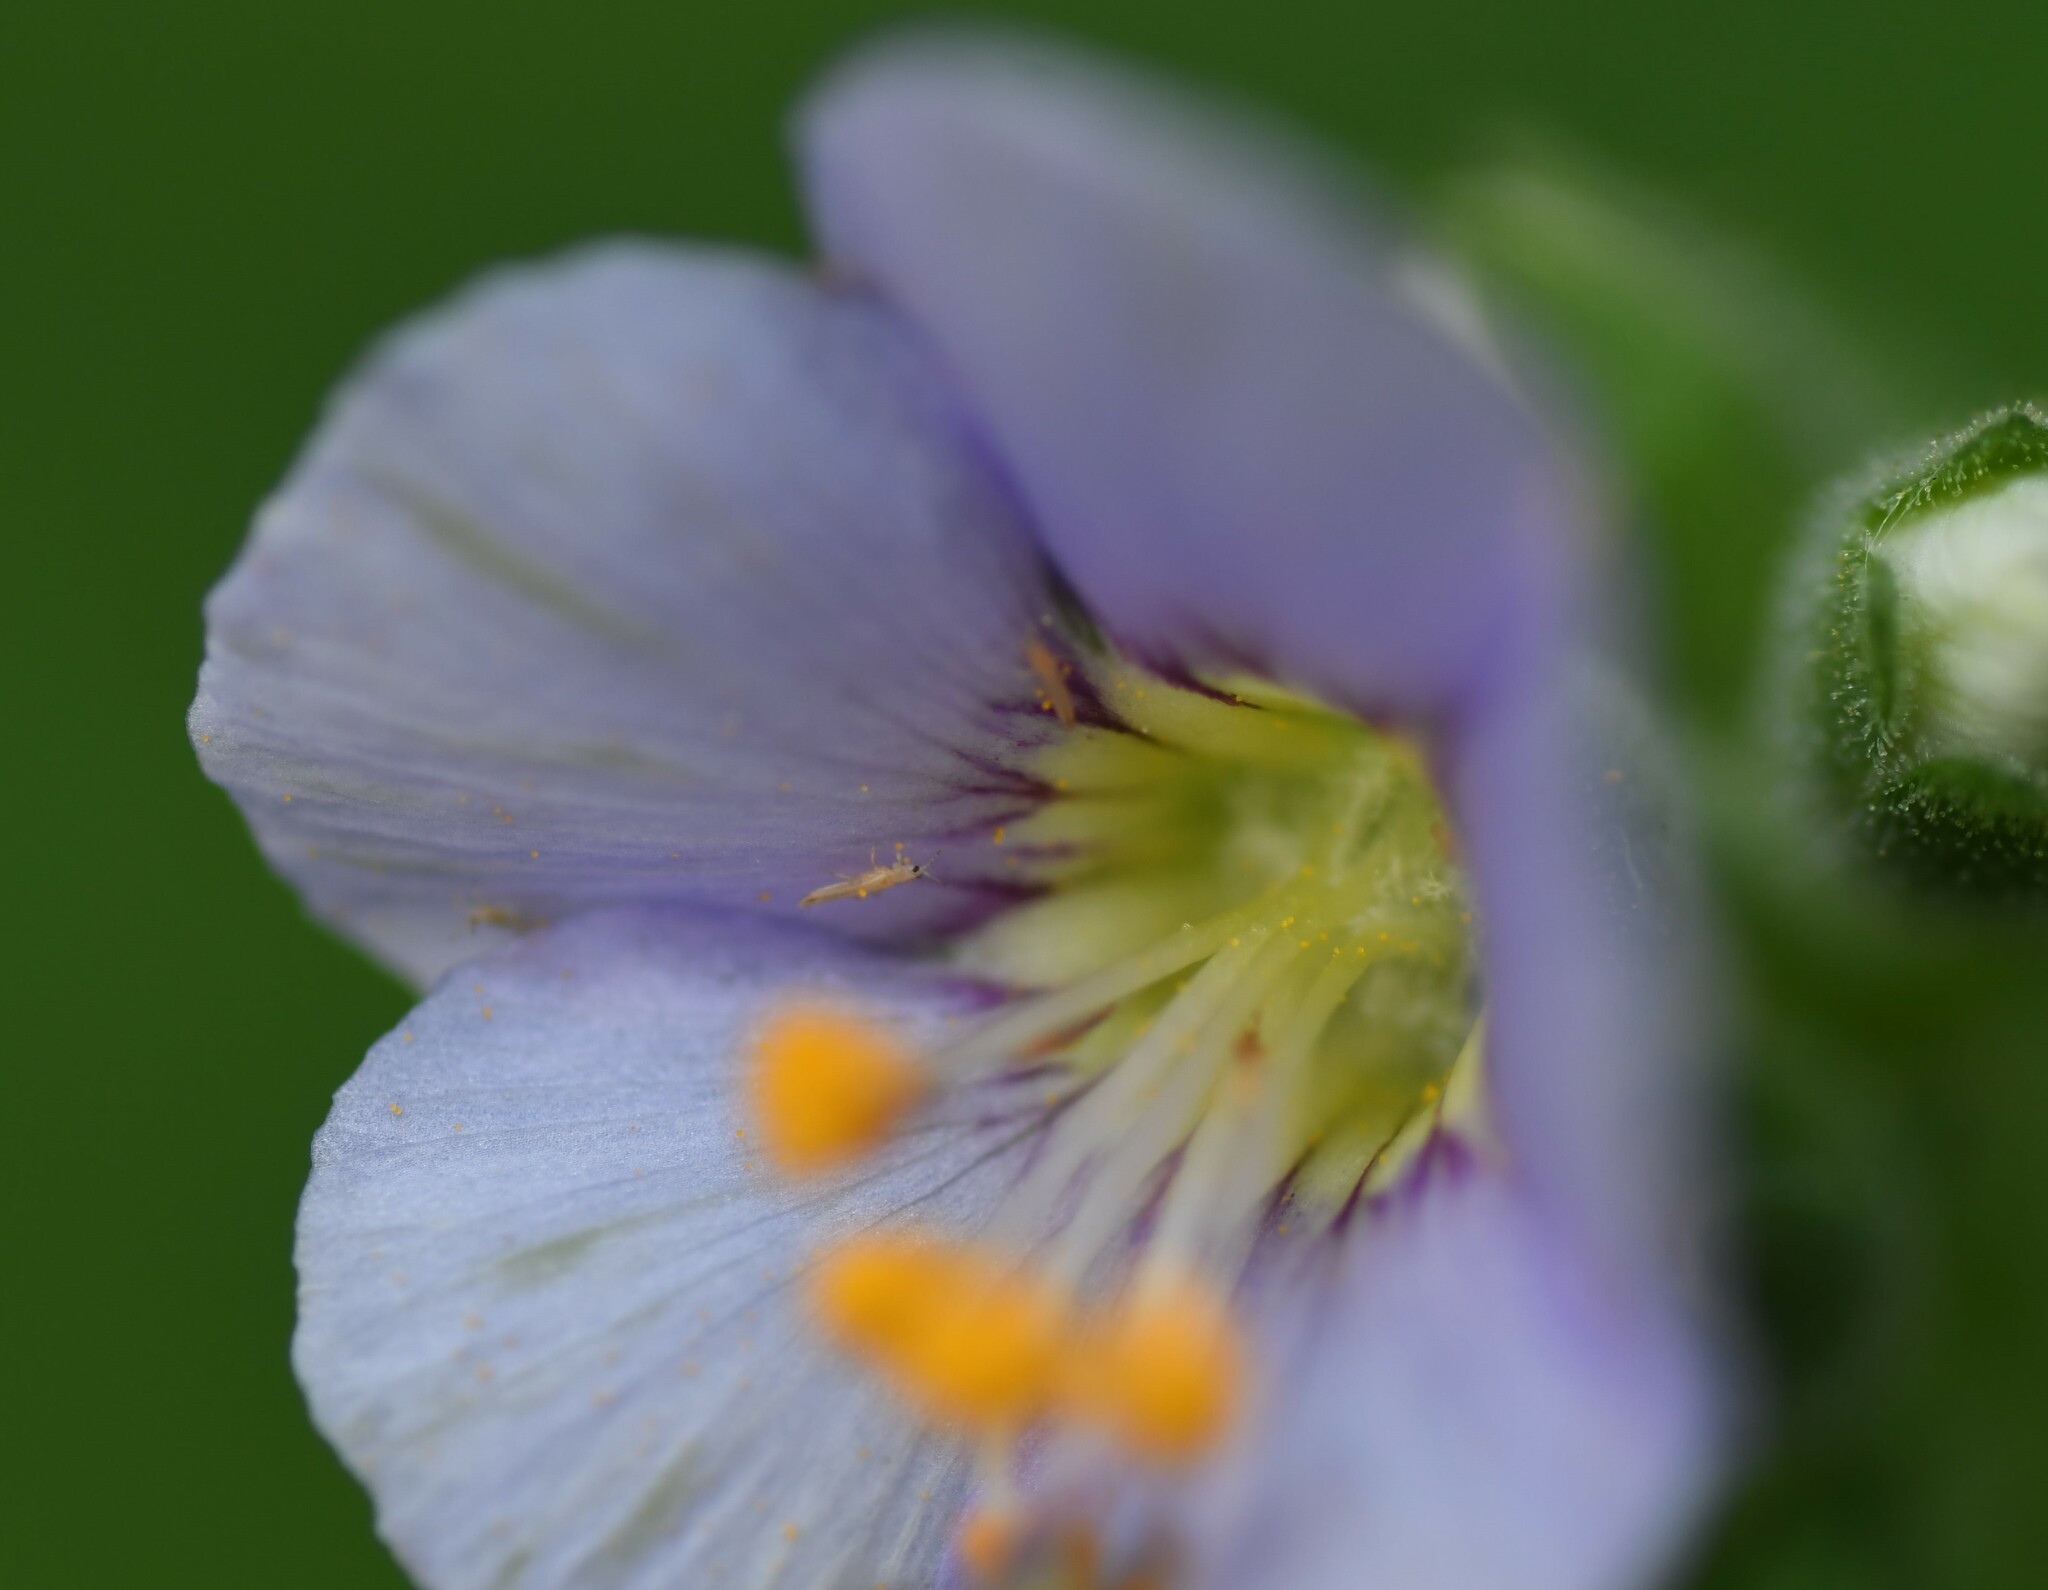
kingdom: Plantae
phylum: Tracheophyta
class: Magnoliopsida
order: Ericales
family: Polemoniaceae
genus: Polemonium
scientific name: Polemonium occidentale
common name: Western jacob's-ladder
